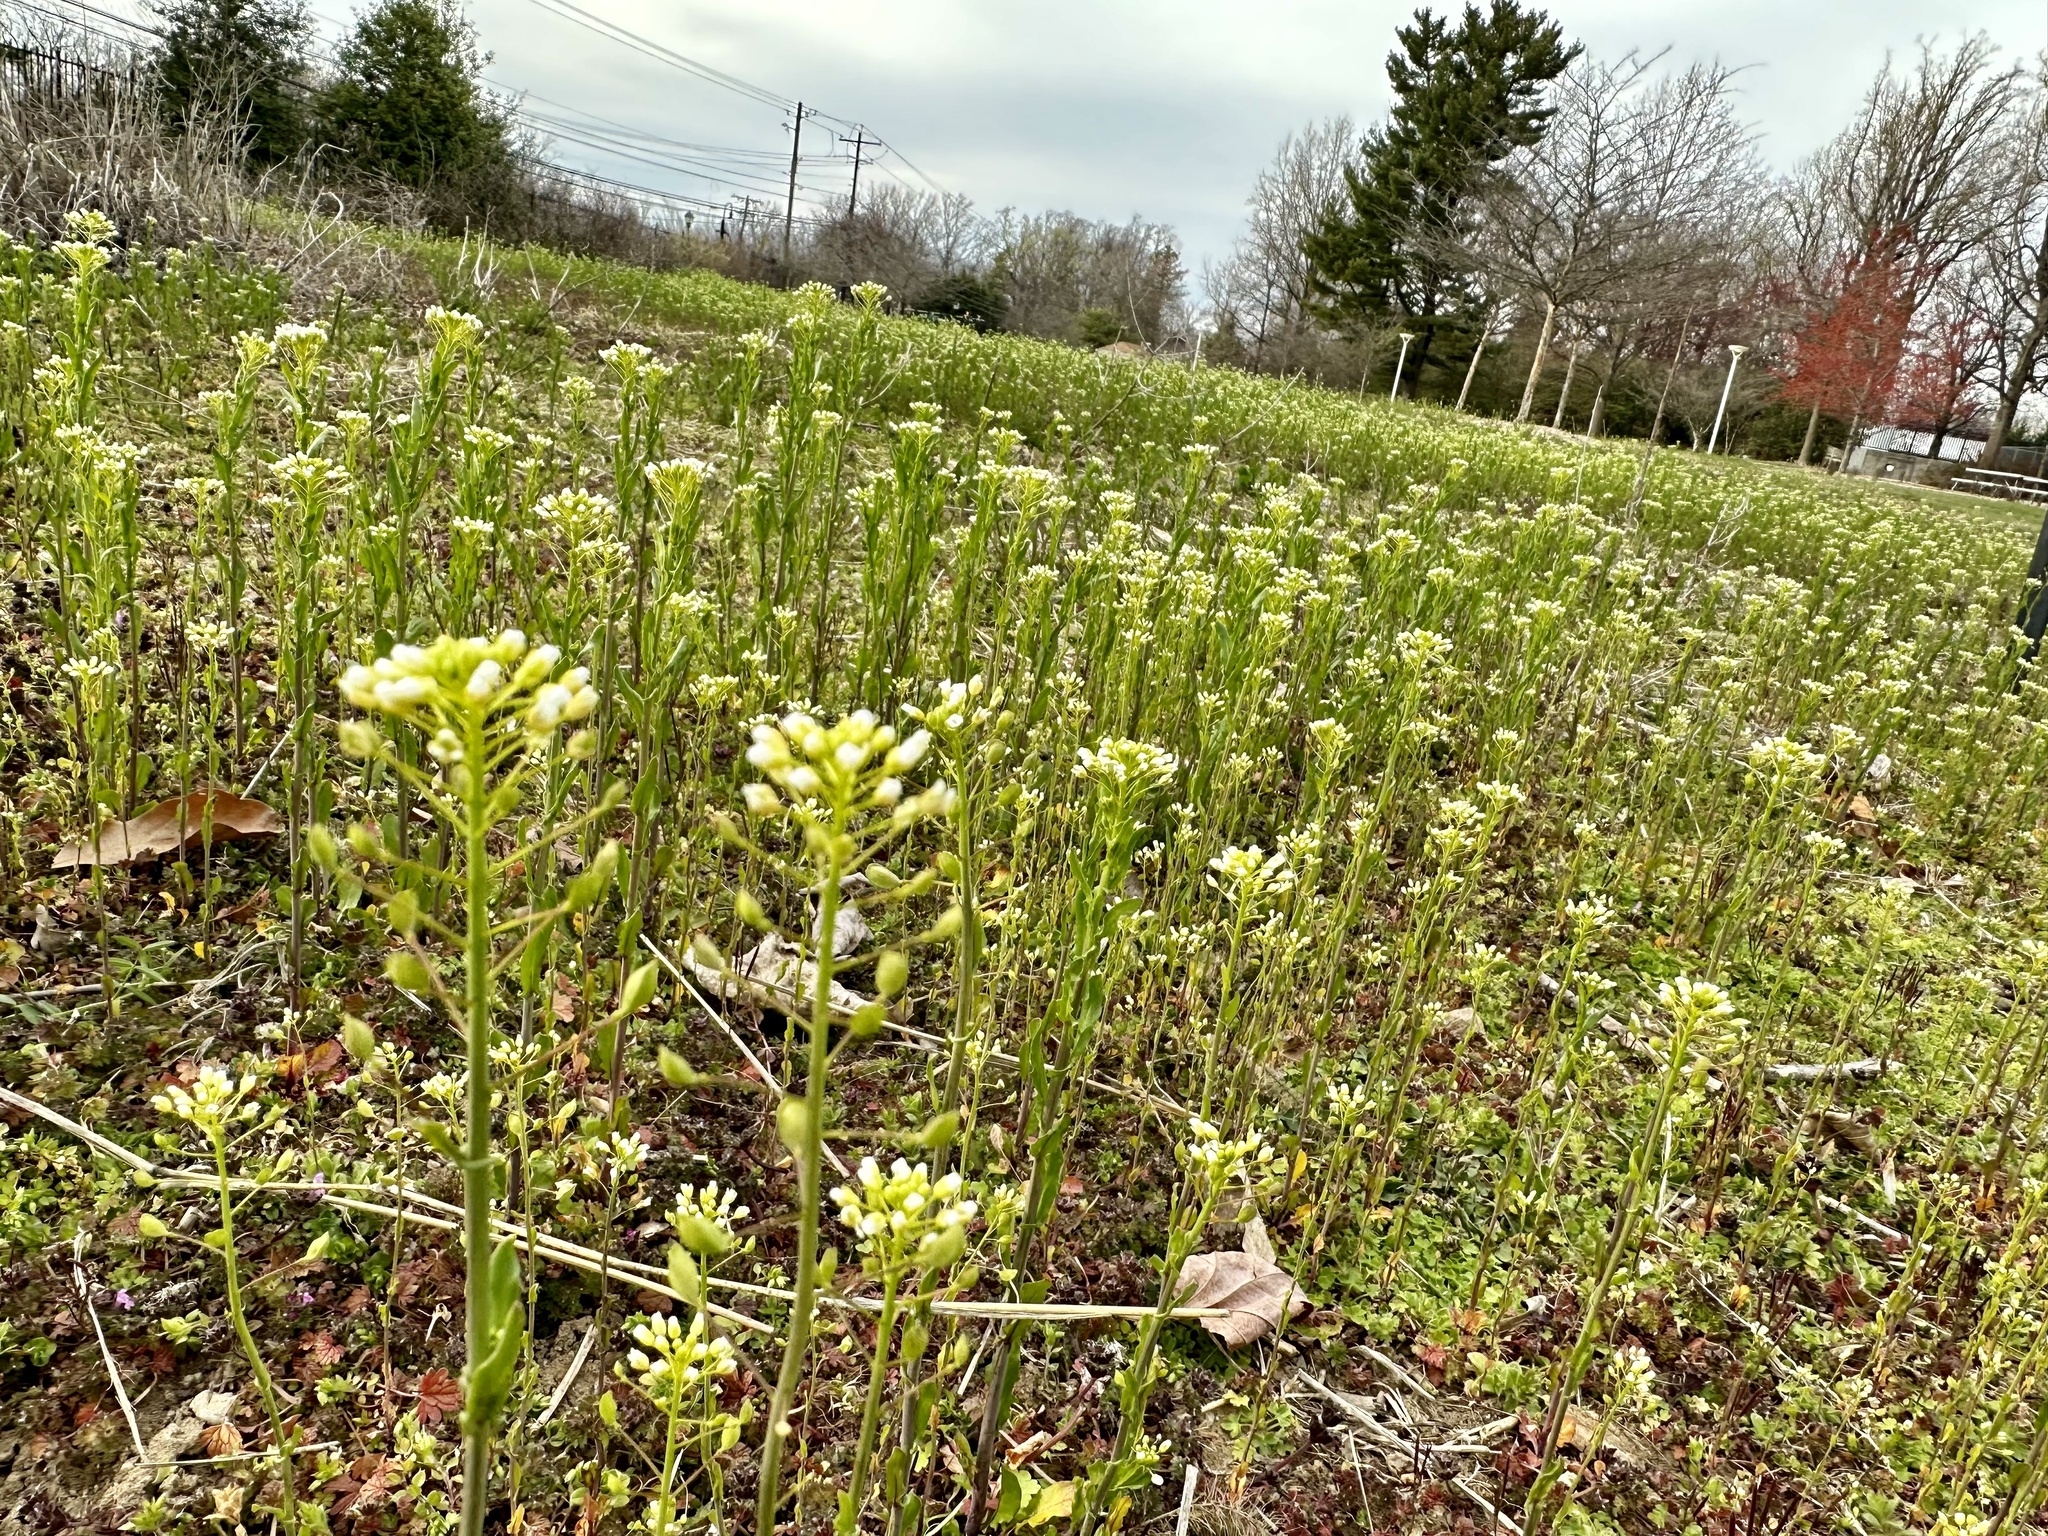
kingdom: Plantae
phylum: Tracheophyta
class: Magnoliopsida
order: Brassicales
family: Brassicaceae
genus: Mummenhoffia
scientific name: Mummenhoffia alliacea
